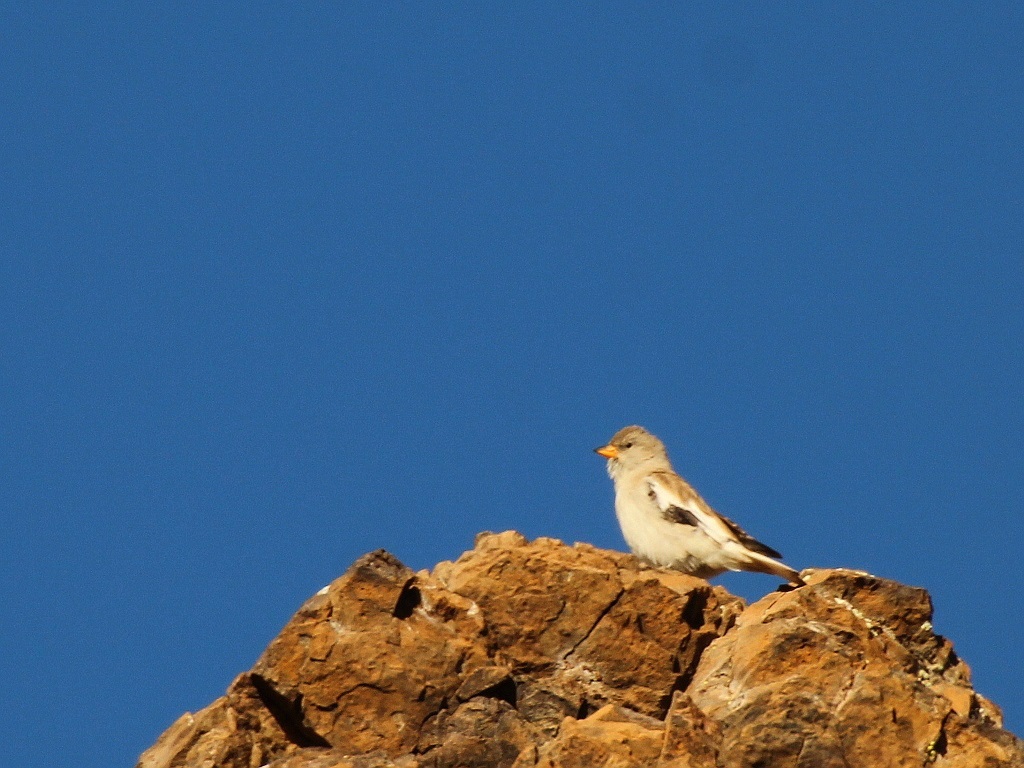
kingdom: Animalia
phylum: Chordata
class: Aves
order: Passeriformes
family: Passeridae
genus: Montifringilla
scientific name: Montifringilla nivalis
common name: White-winged snowfinch
